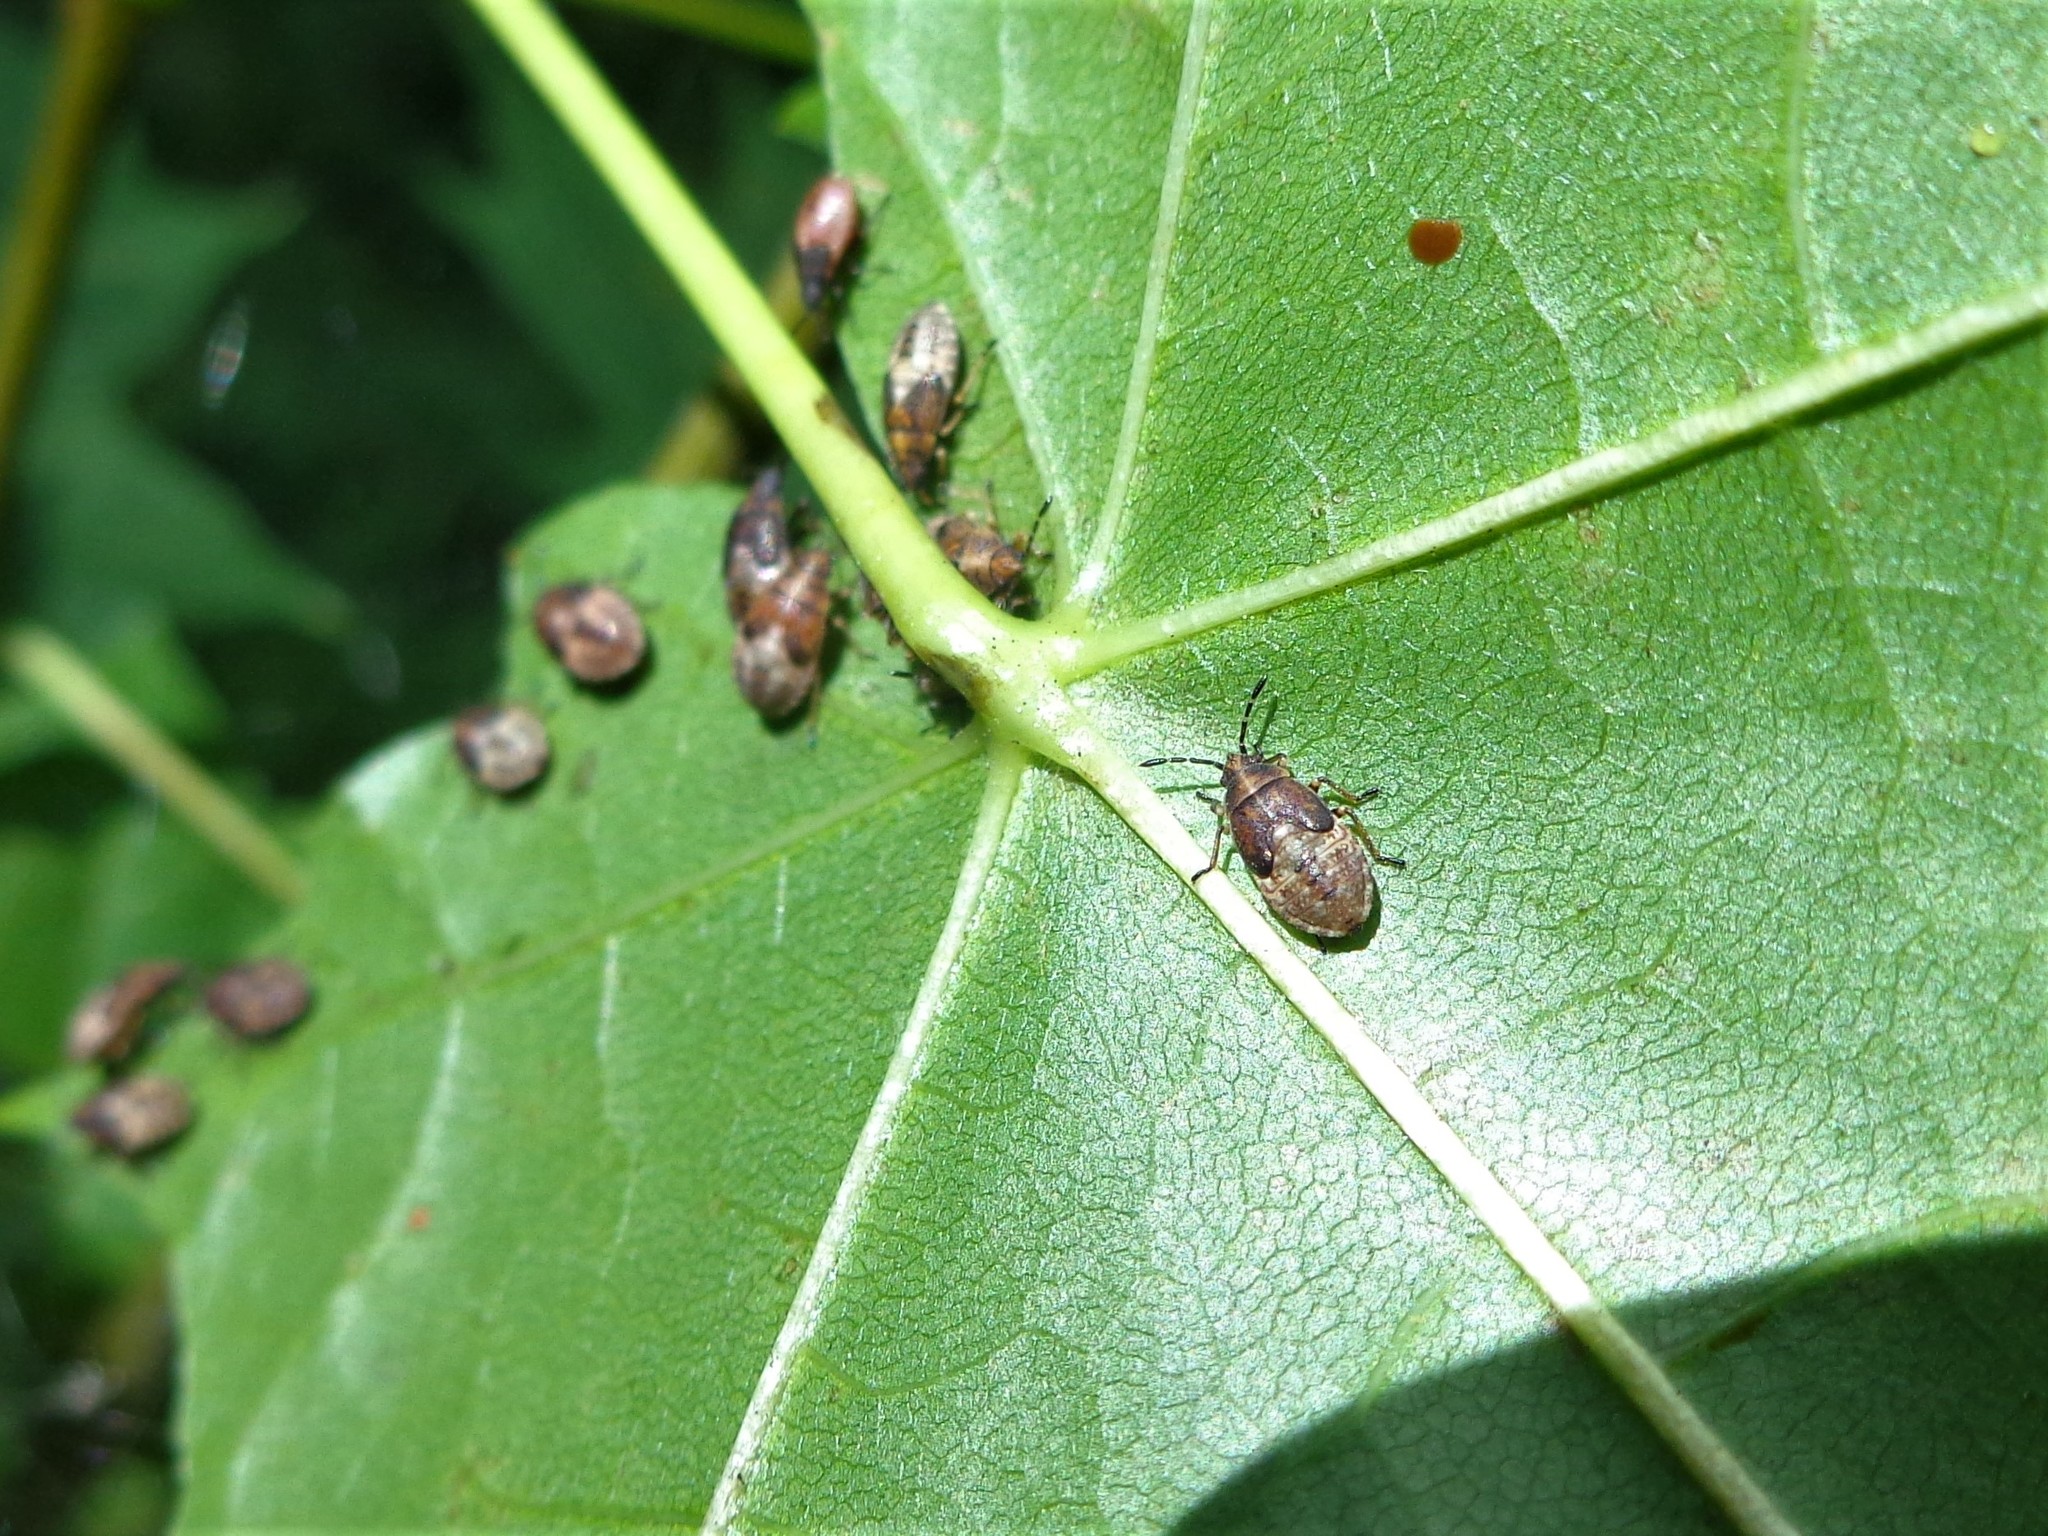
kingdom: Animalia
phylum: Arthropoda
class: Insecta
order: Hemiptera
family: Lygaeidae
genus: Kleidocerys
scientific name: Kleidocerys resedae
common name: Birch catkin bug
